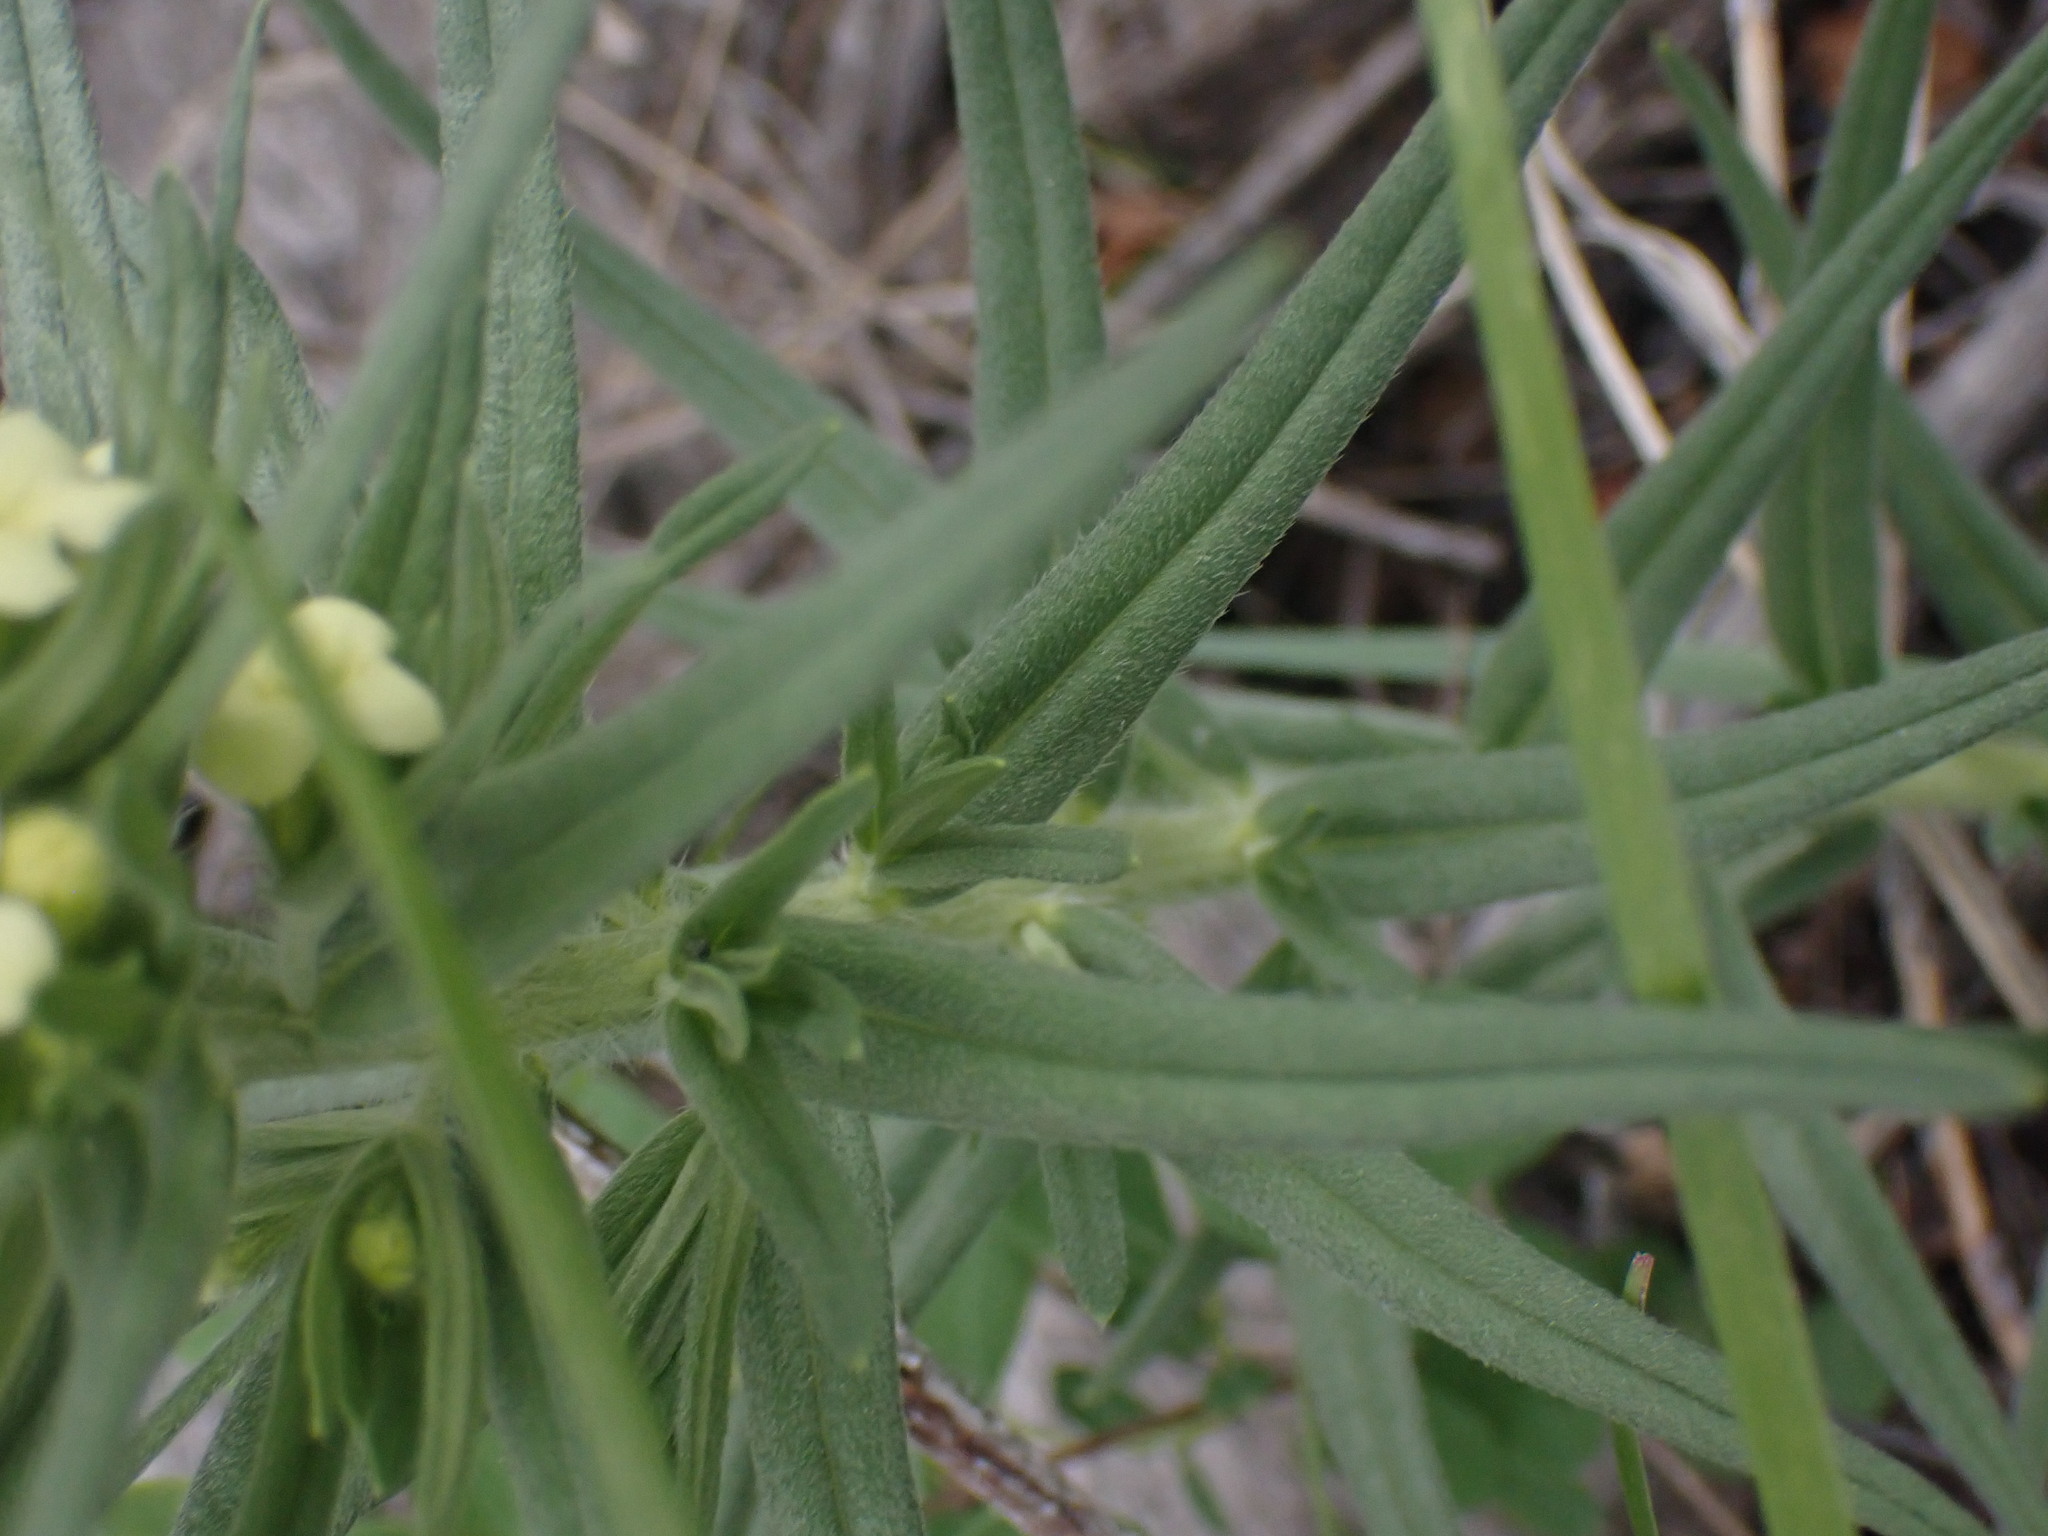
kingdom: Plantae
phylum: Tracheophyta
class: Magnoliopsida
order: Boraginales
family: Boraginaceae
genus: Lithospermum
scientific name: Lithospermum ruderale
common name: Western gromwell
